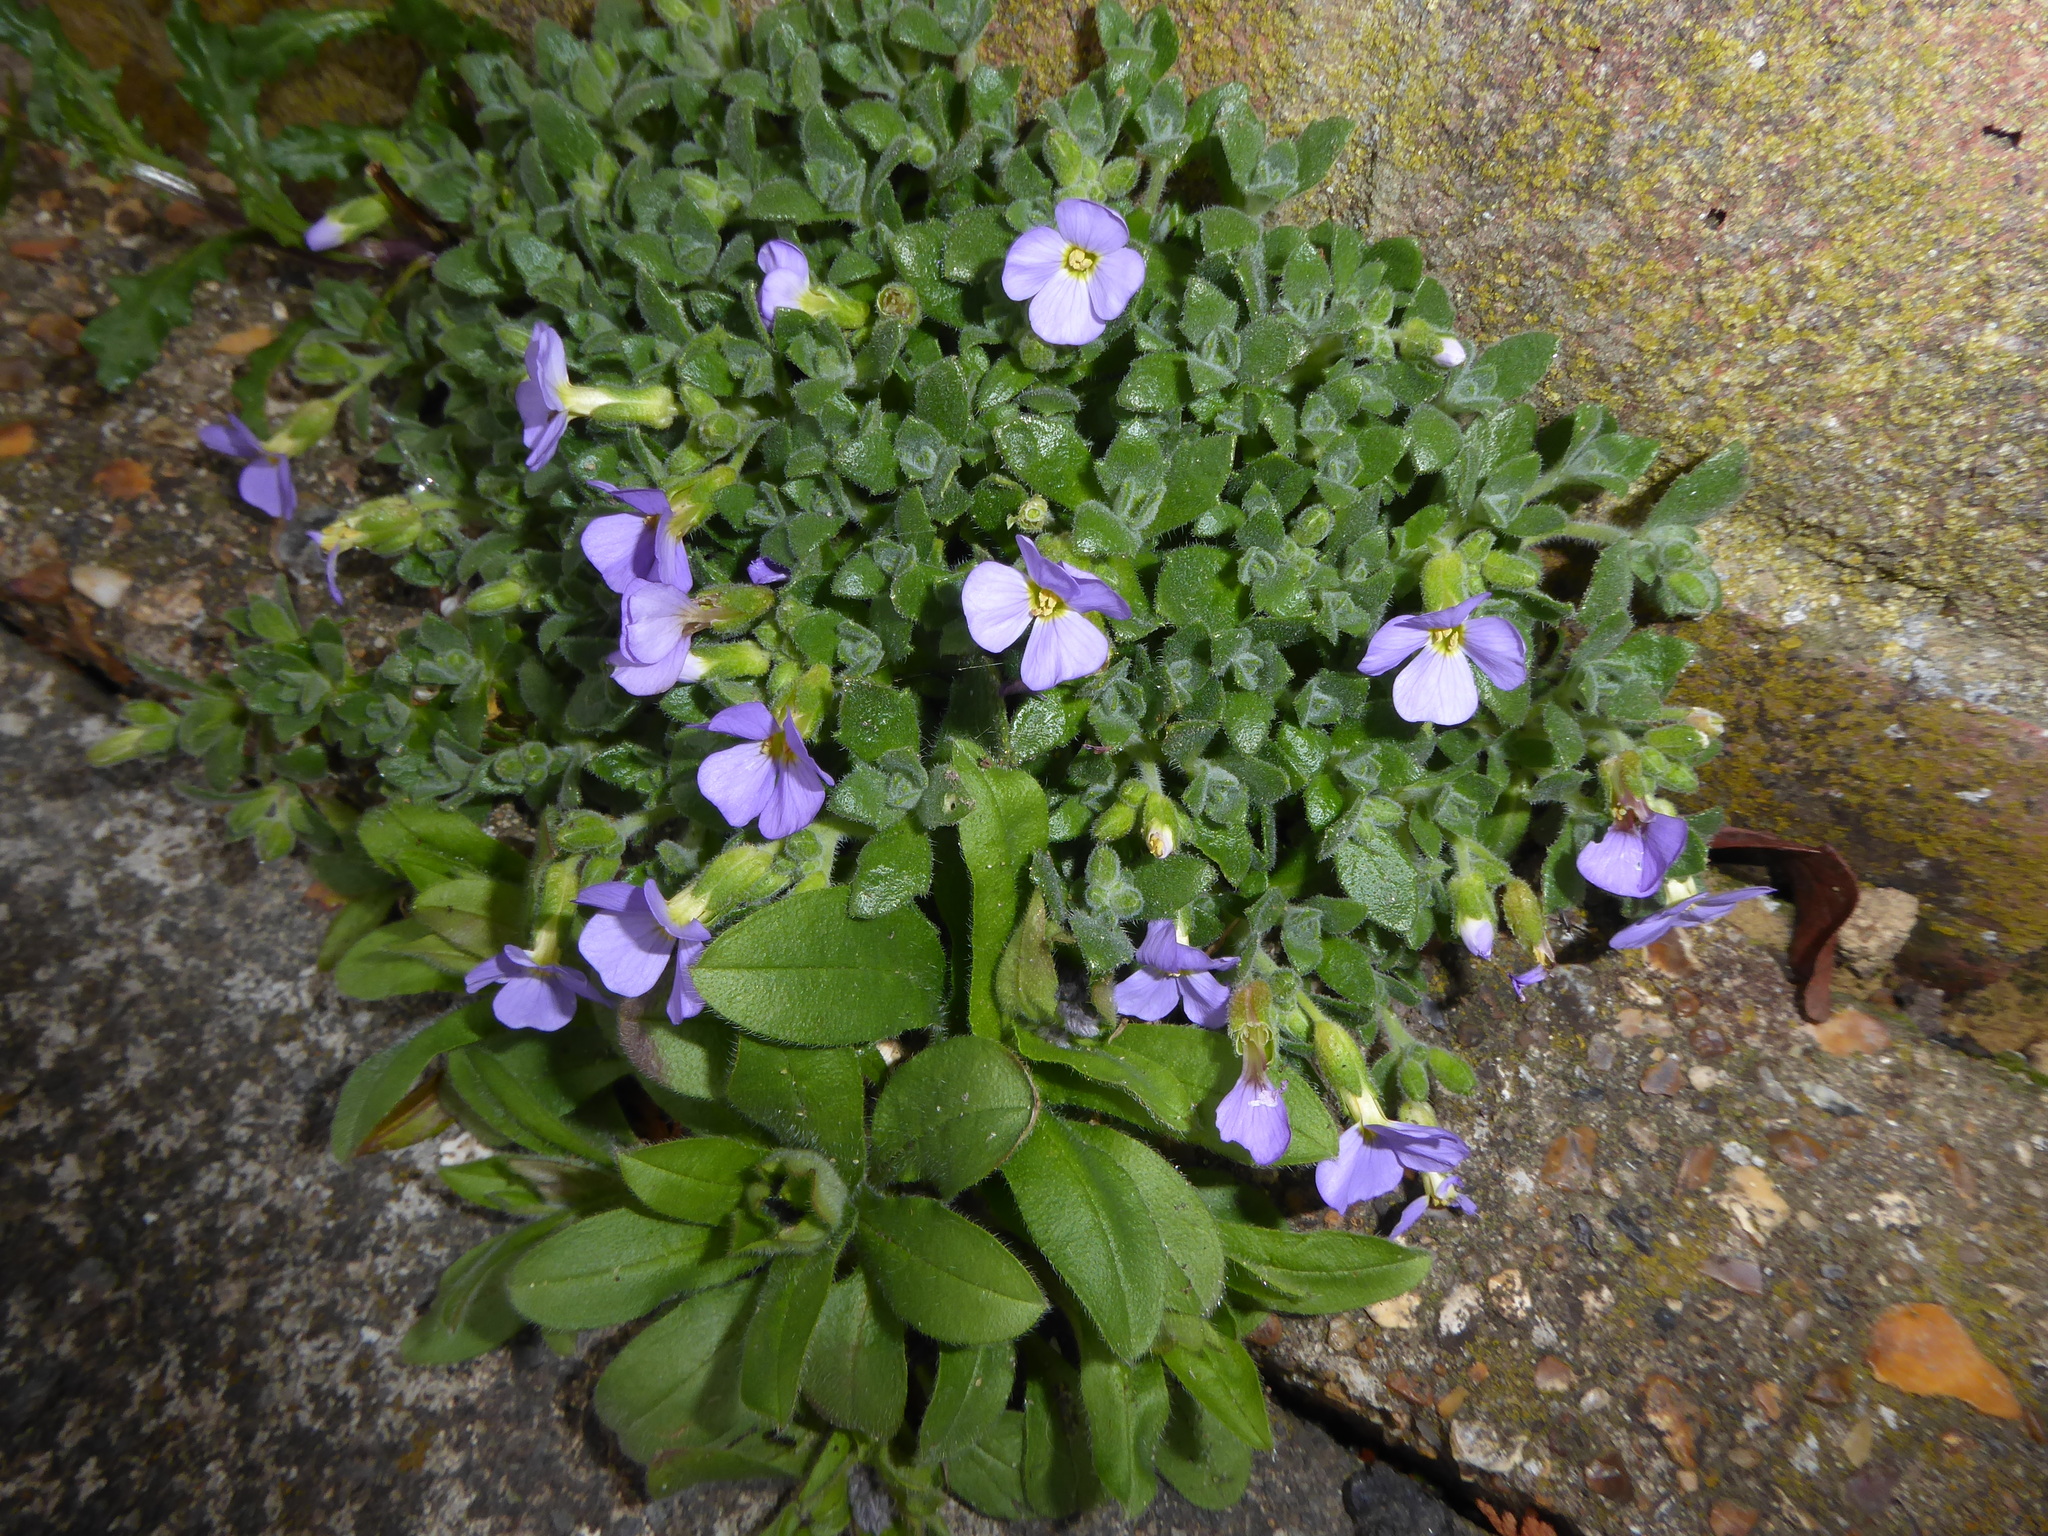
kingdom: Plantae
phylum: Tracheophyta
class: Magnoliopsida
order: Brassicales
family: Brassicaceae
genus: Aubrieta
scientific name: Aubrieta deltoidea
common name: Aubretia
